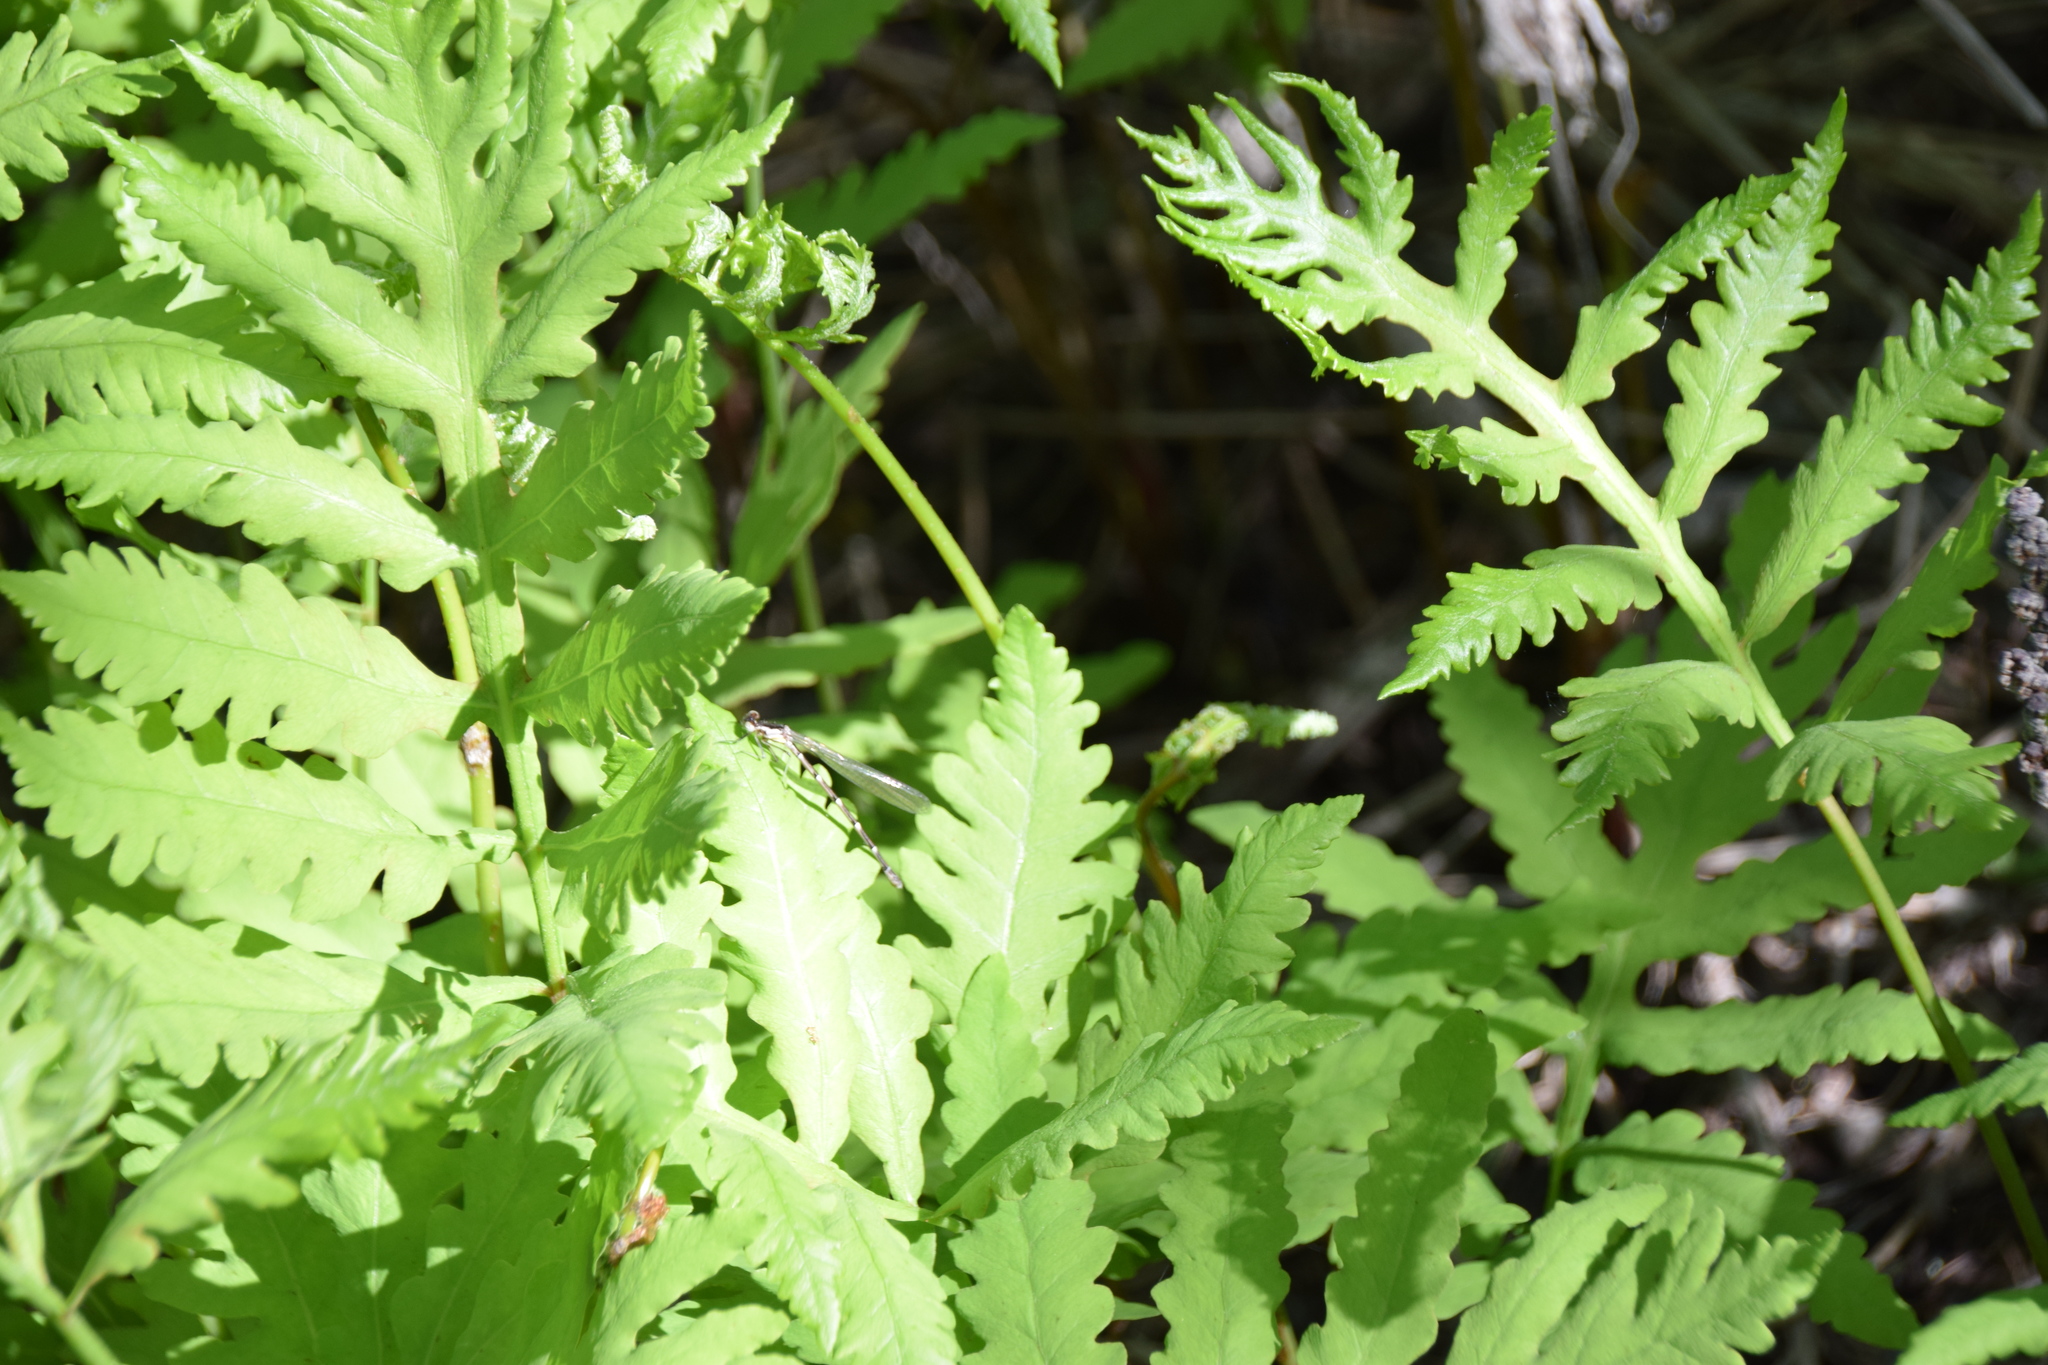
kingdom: Plantae
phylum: Tracheophyta
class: Polypodiopsida
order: Polypodiales
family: Onocleaceae
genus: Onoclea
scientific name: Onoclea sensibilis
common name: Sensitive fern
